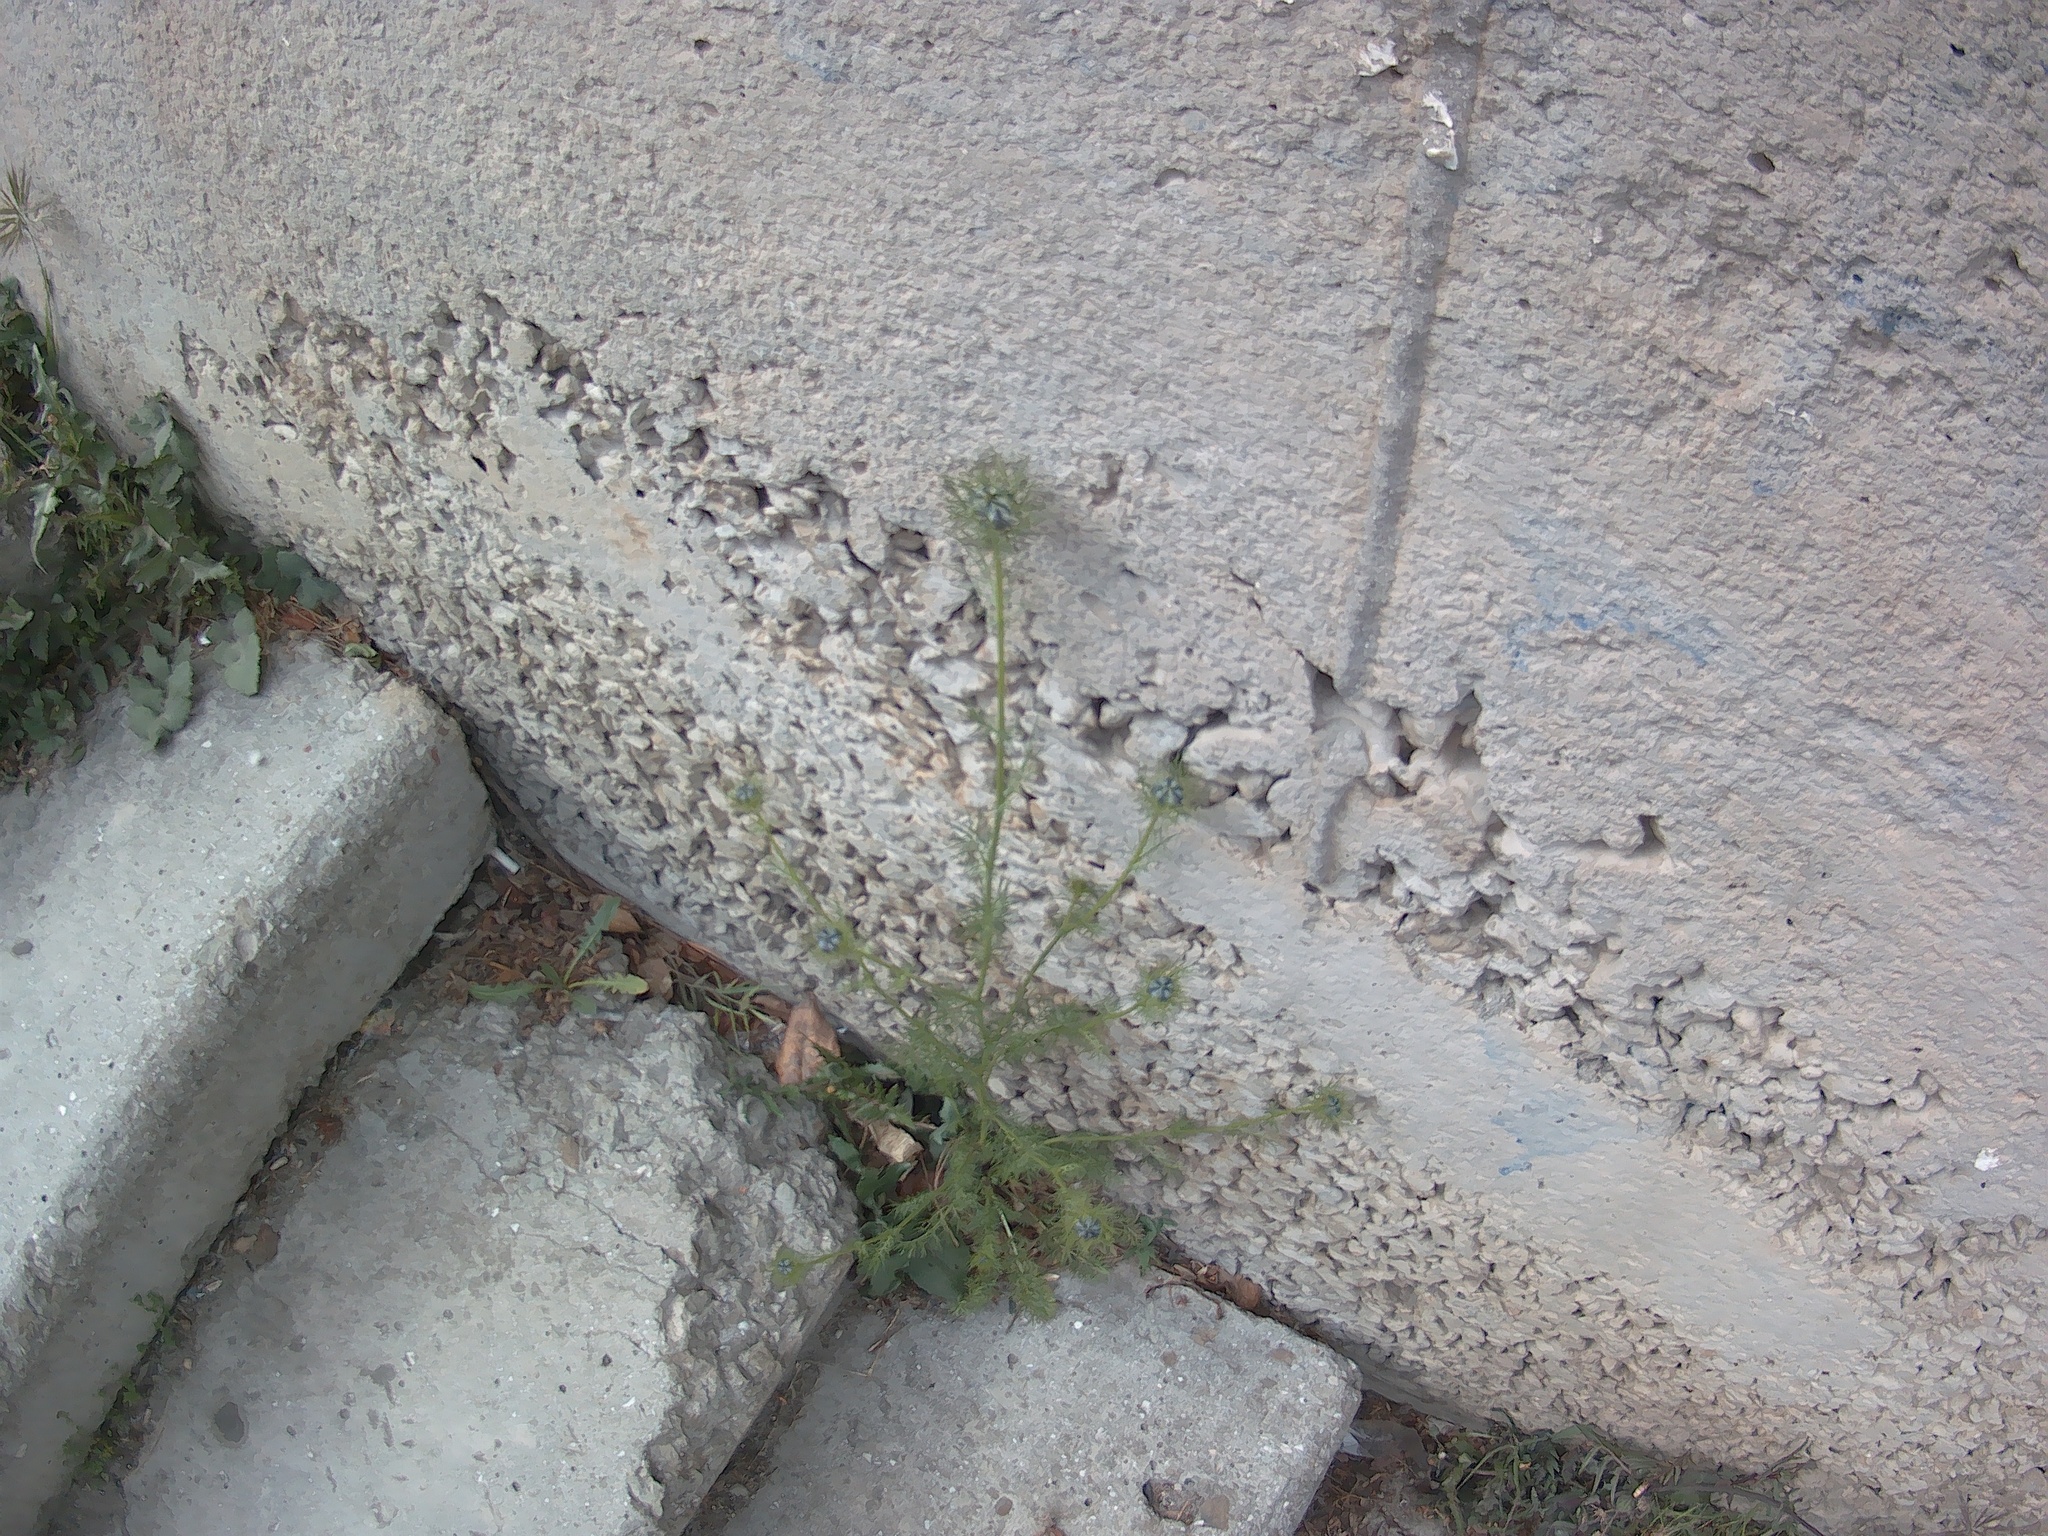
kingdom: Plantae
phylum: Tracheophyta
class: Magnoliopsida
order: Ranunculales
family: Ranunculaceae
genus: Nigella
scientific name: Nigella damascena
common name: Love-in-a-mist
